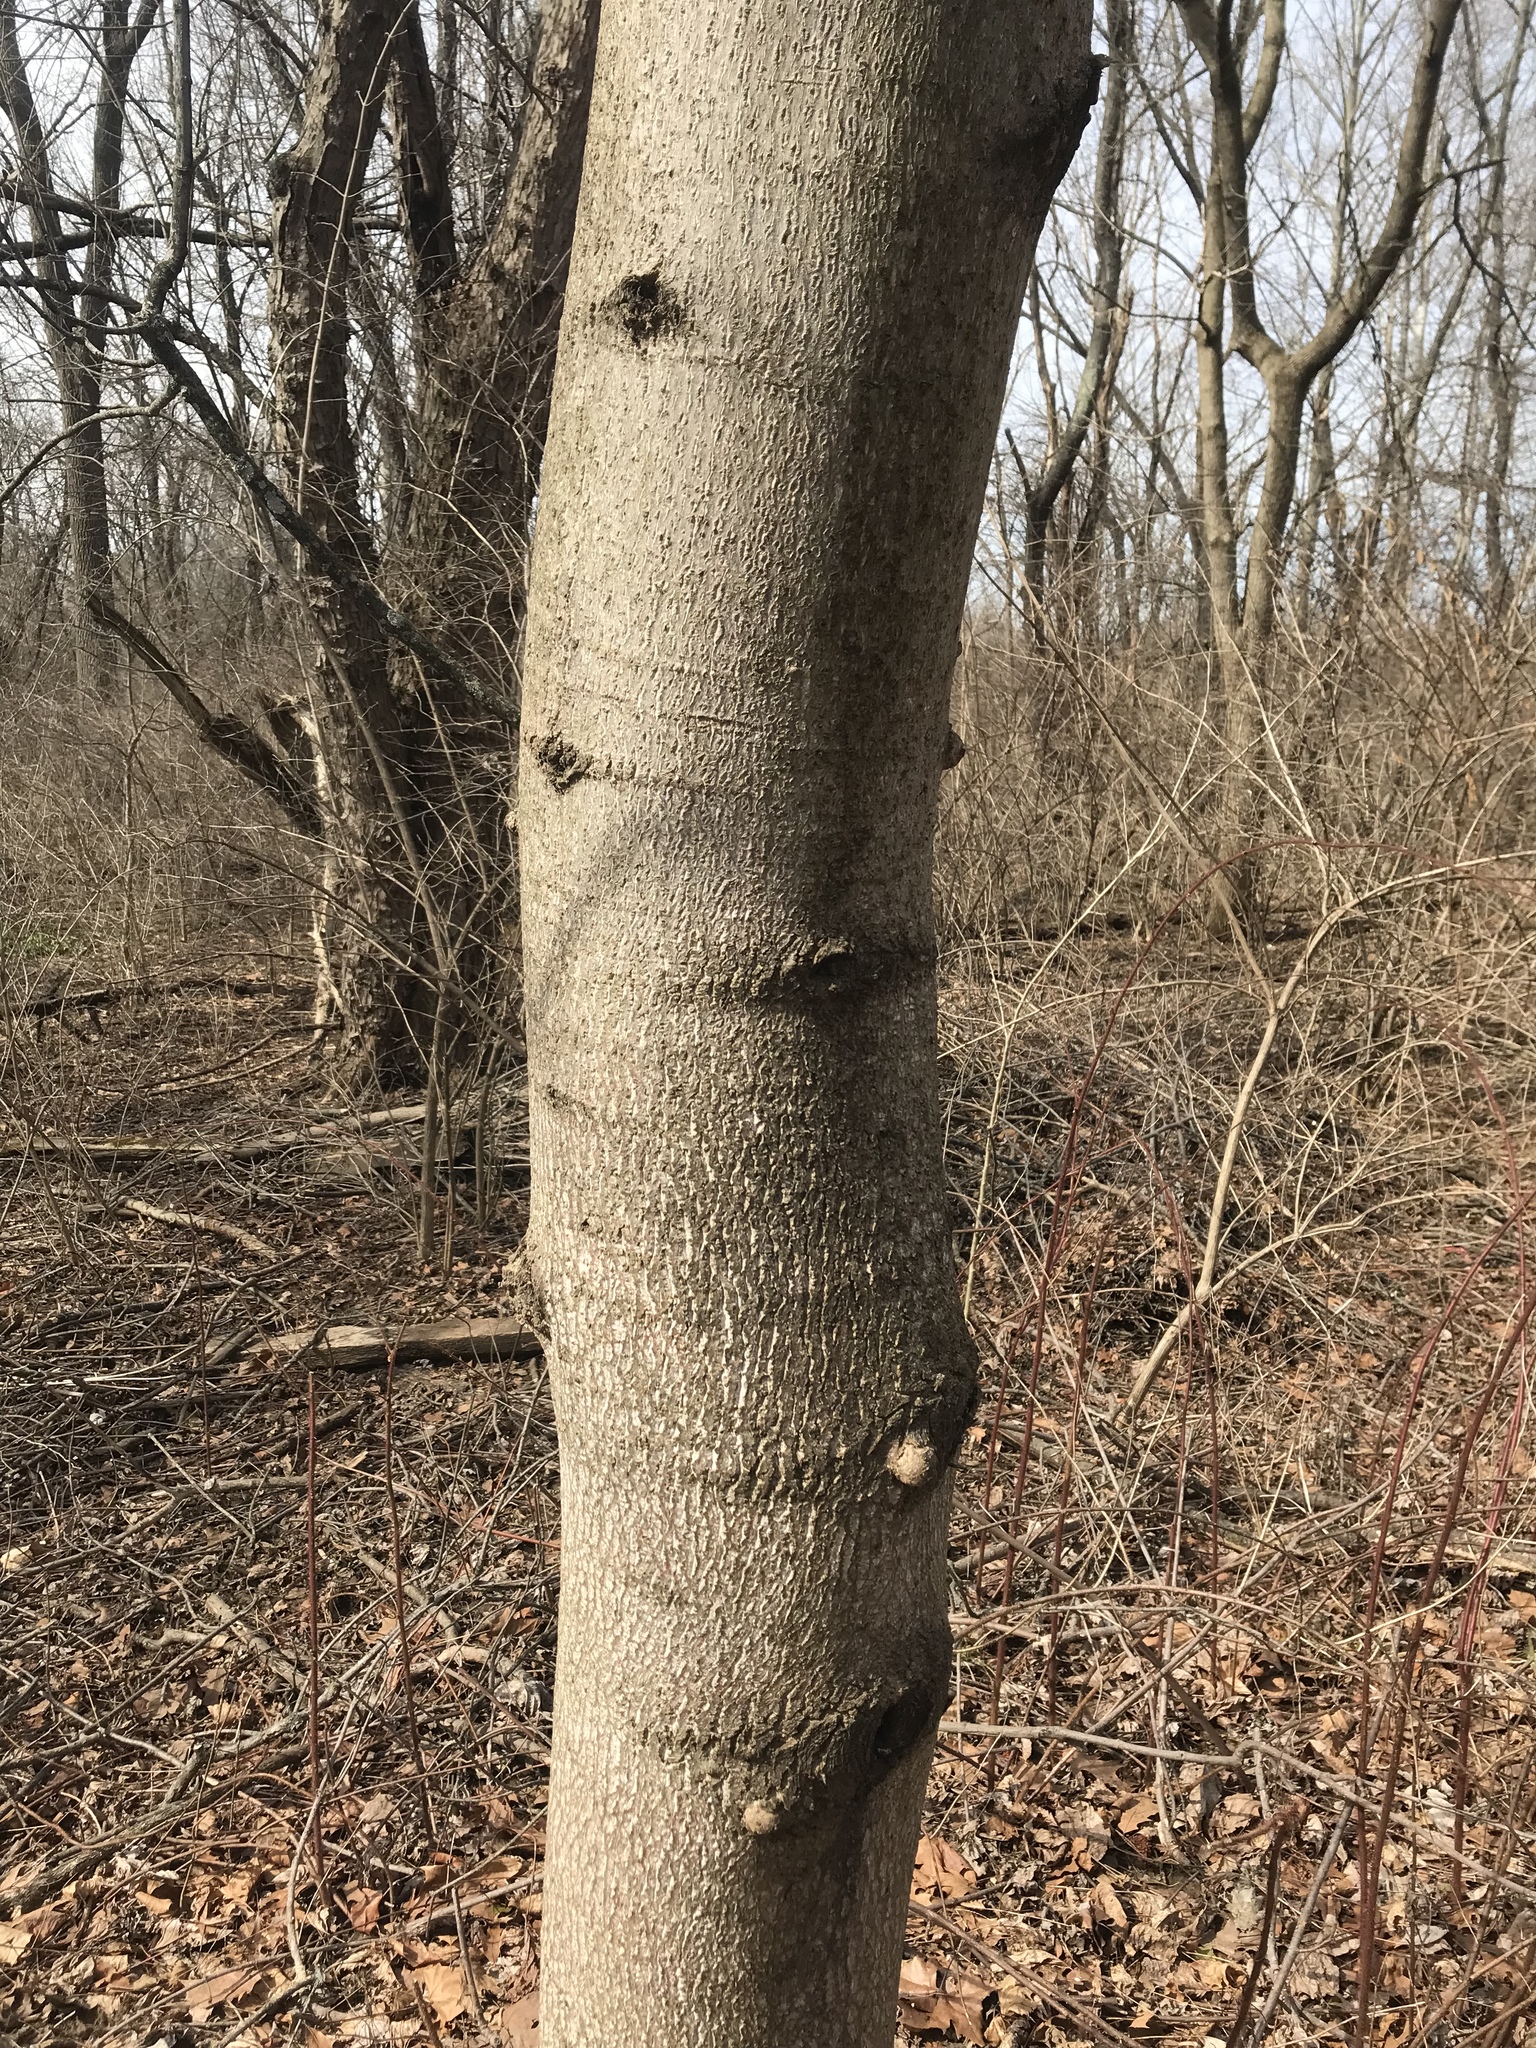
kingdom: Plantae
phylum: Tracheophyta
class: Magnoliopsida
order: Magnoliales
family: Magnoliaceae
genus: Liriodendron
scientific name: Liriodendron tulipifera
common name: Tulip tree
